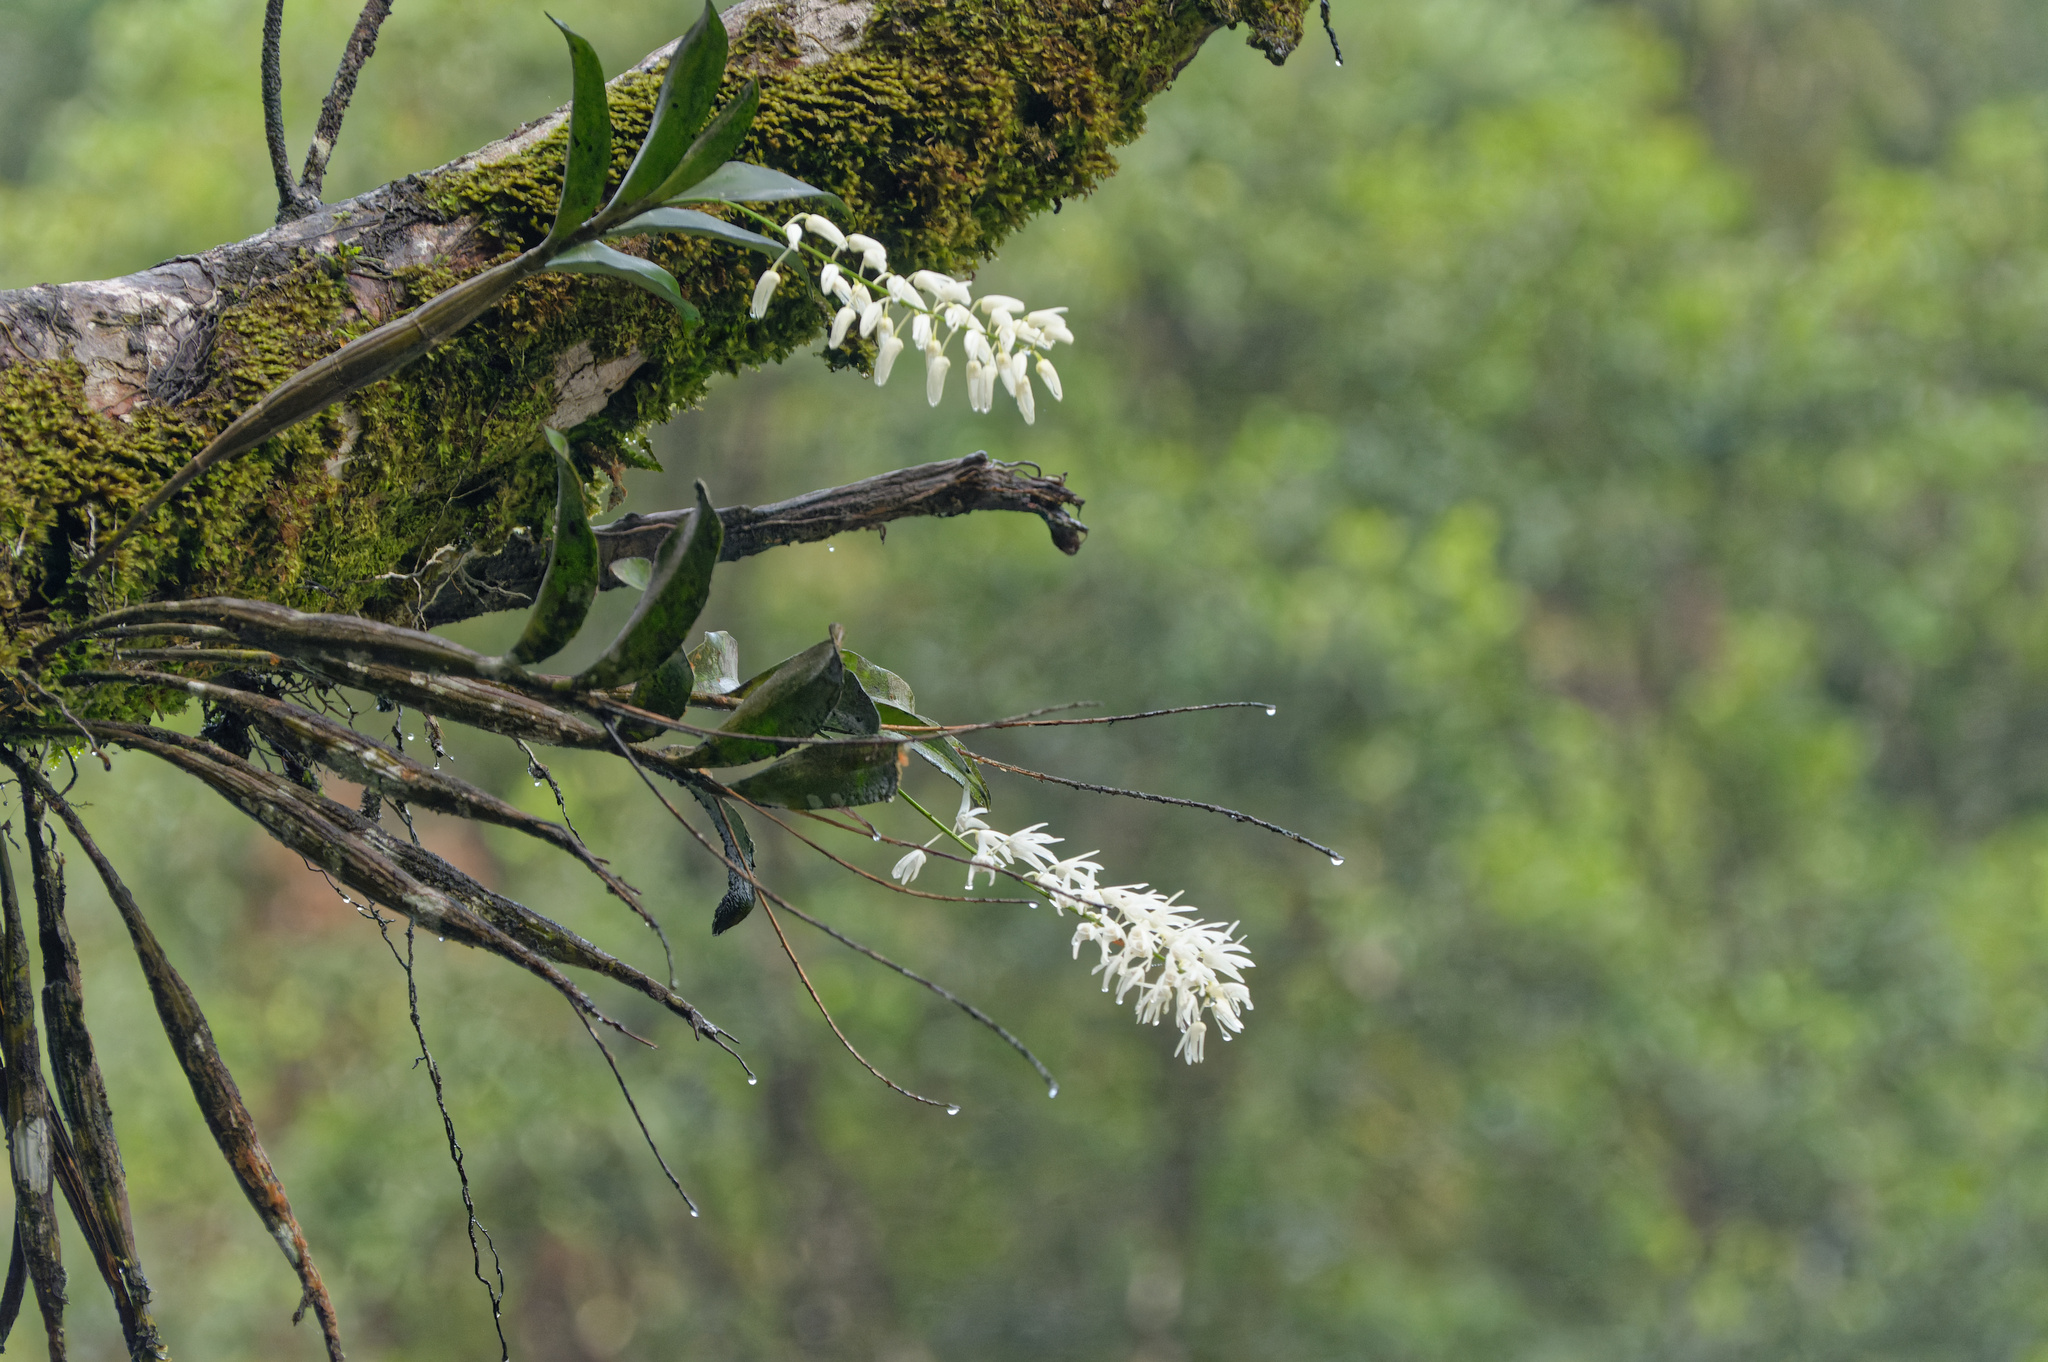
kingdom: Plantae
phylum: Tracheophyta
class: Liliopsida
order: Asparagales
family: Orchidaceae
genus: Dendrobium
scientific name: Dendrobium jonesii
